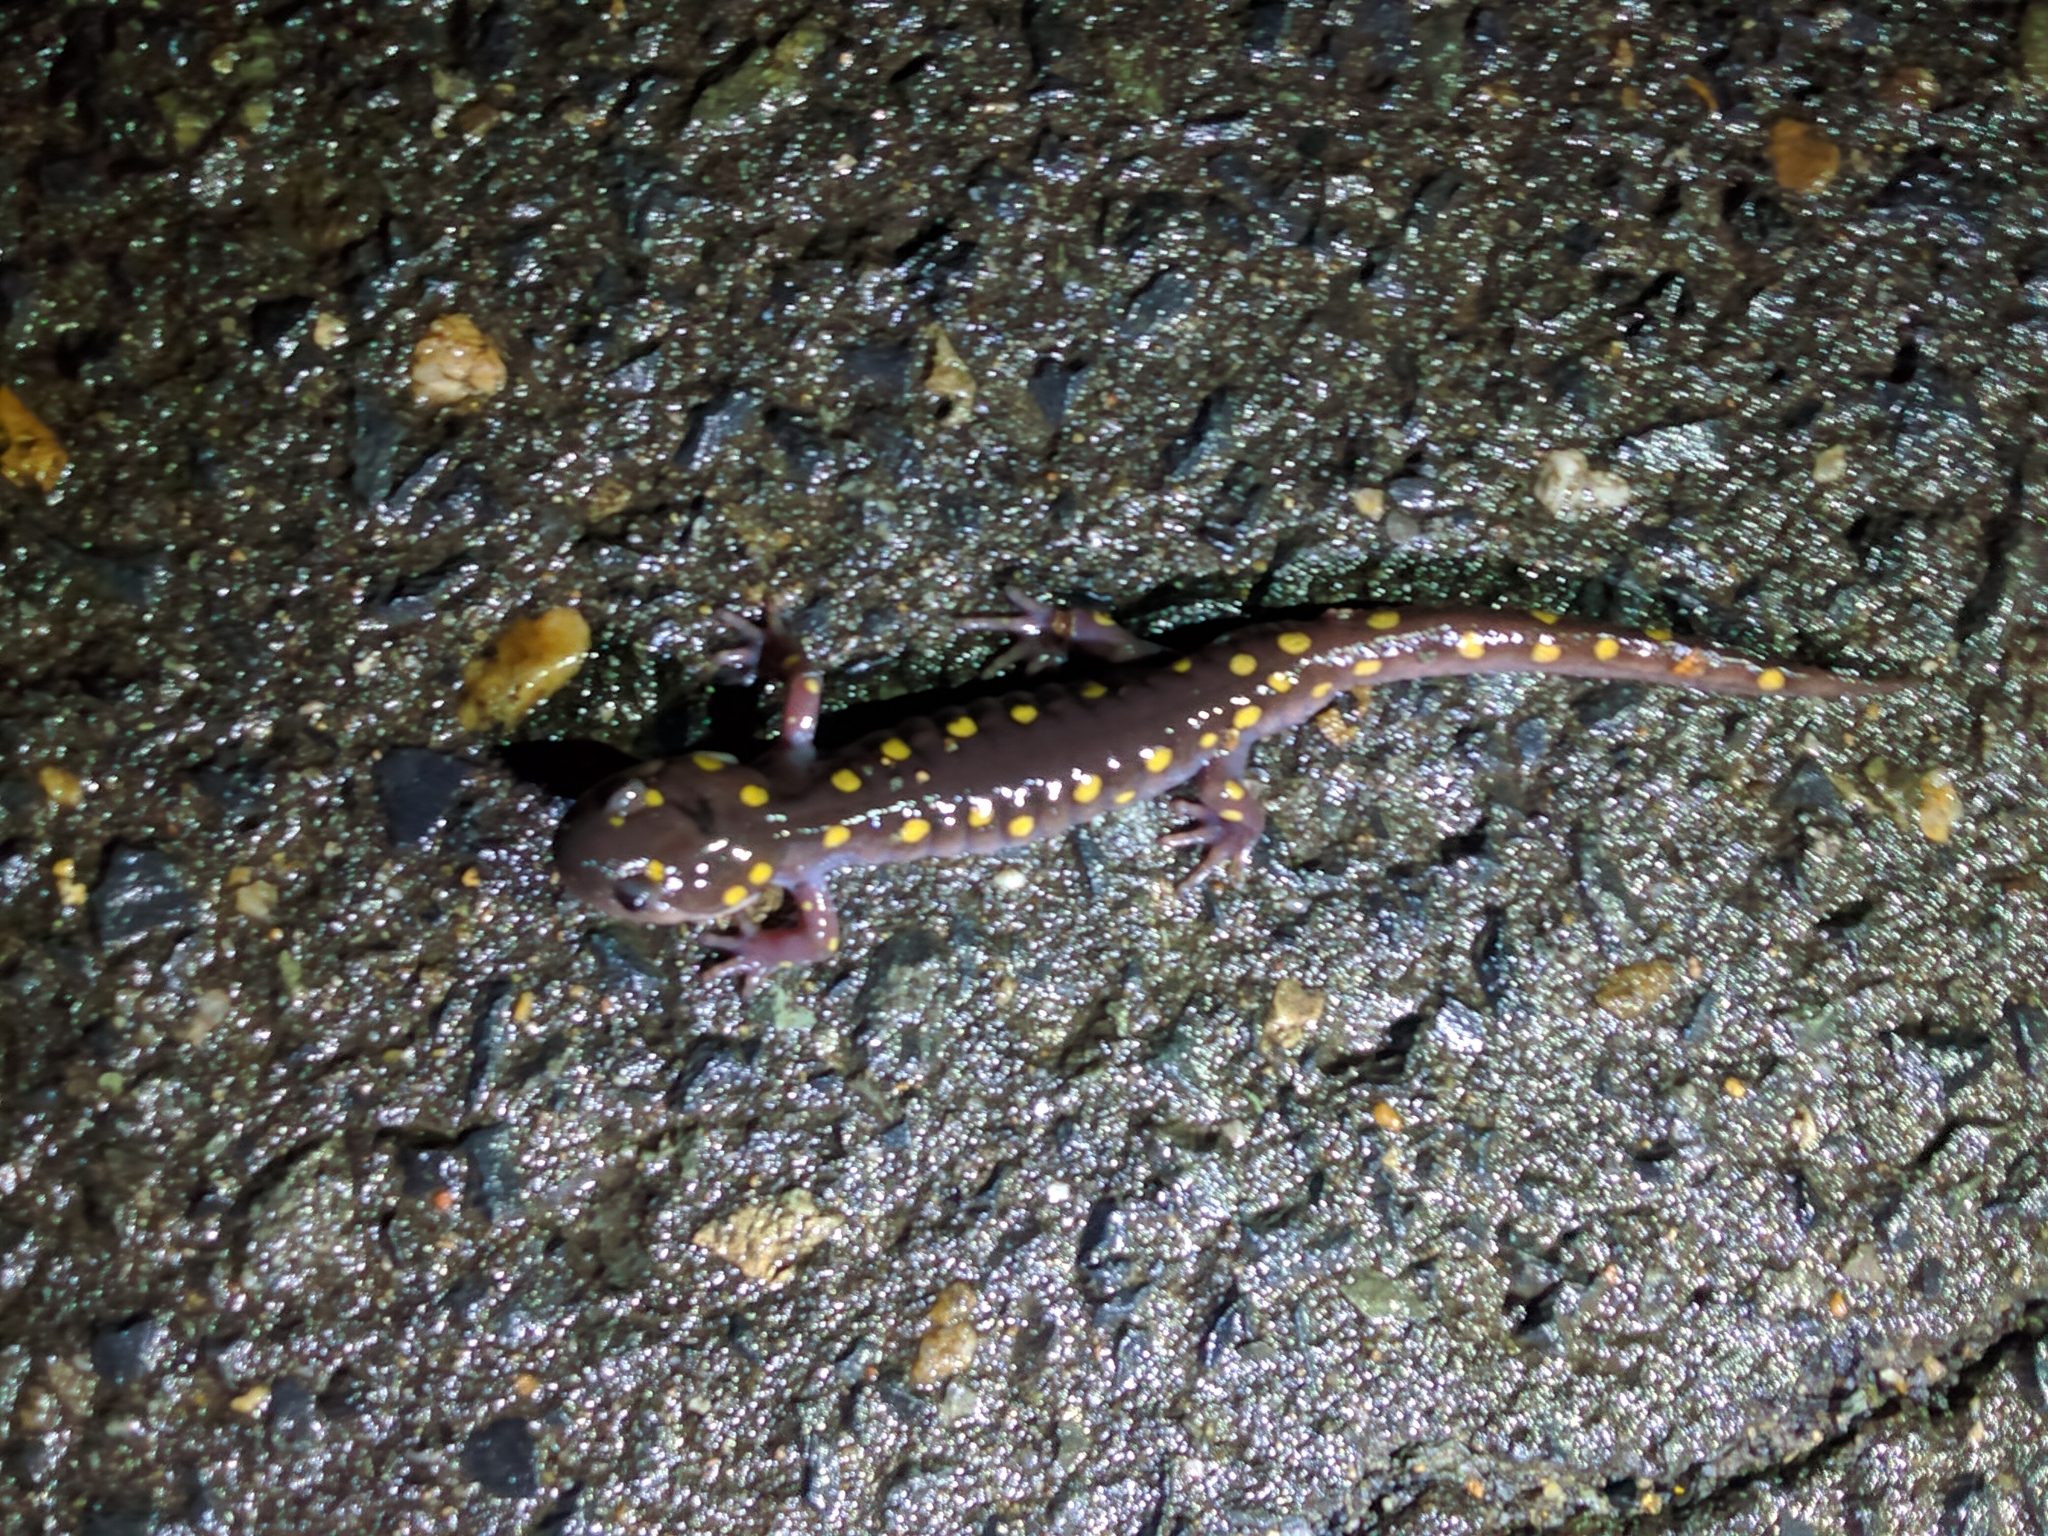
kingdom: Animalia
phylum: Chordata
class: Amphibia
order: Caudata
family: Ambystomatidae
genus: Ambystoma
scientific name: Ambystoma maculatum
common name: Spotted salamander
